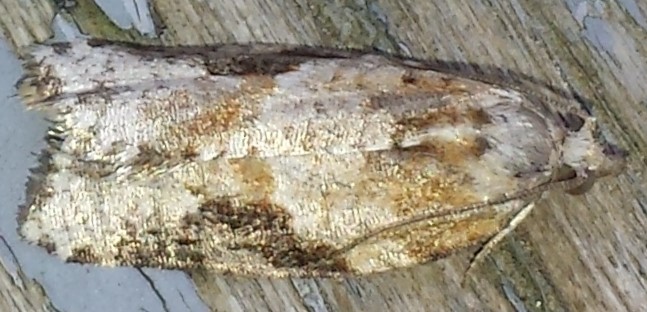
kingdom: Animalia
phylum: Arthropoda
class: Insecta
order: Lepidoptera
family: Tortricidae
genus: Argyrotaenia
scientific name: Argyrotaenia mariana
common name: Gray-banded leafroller moth
